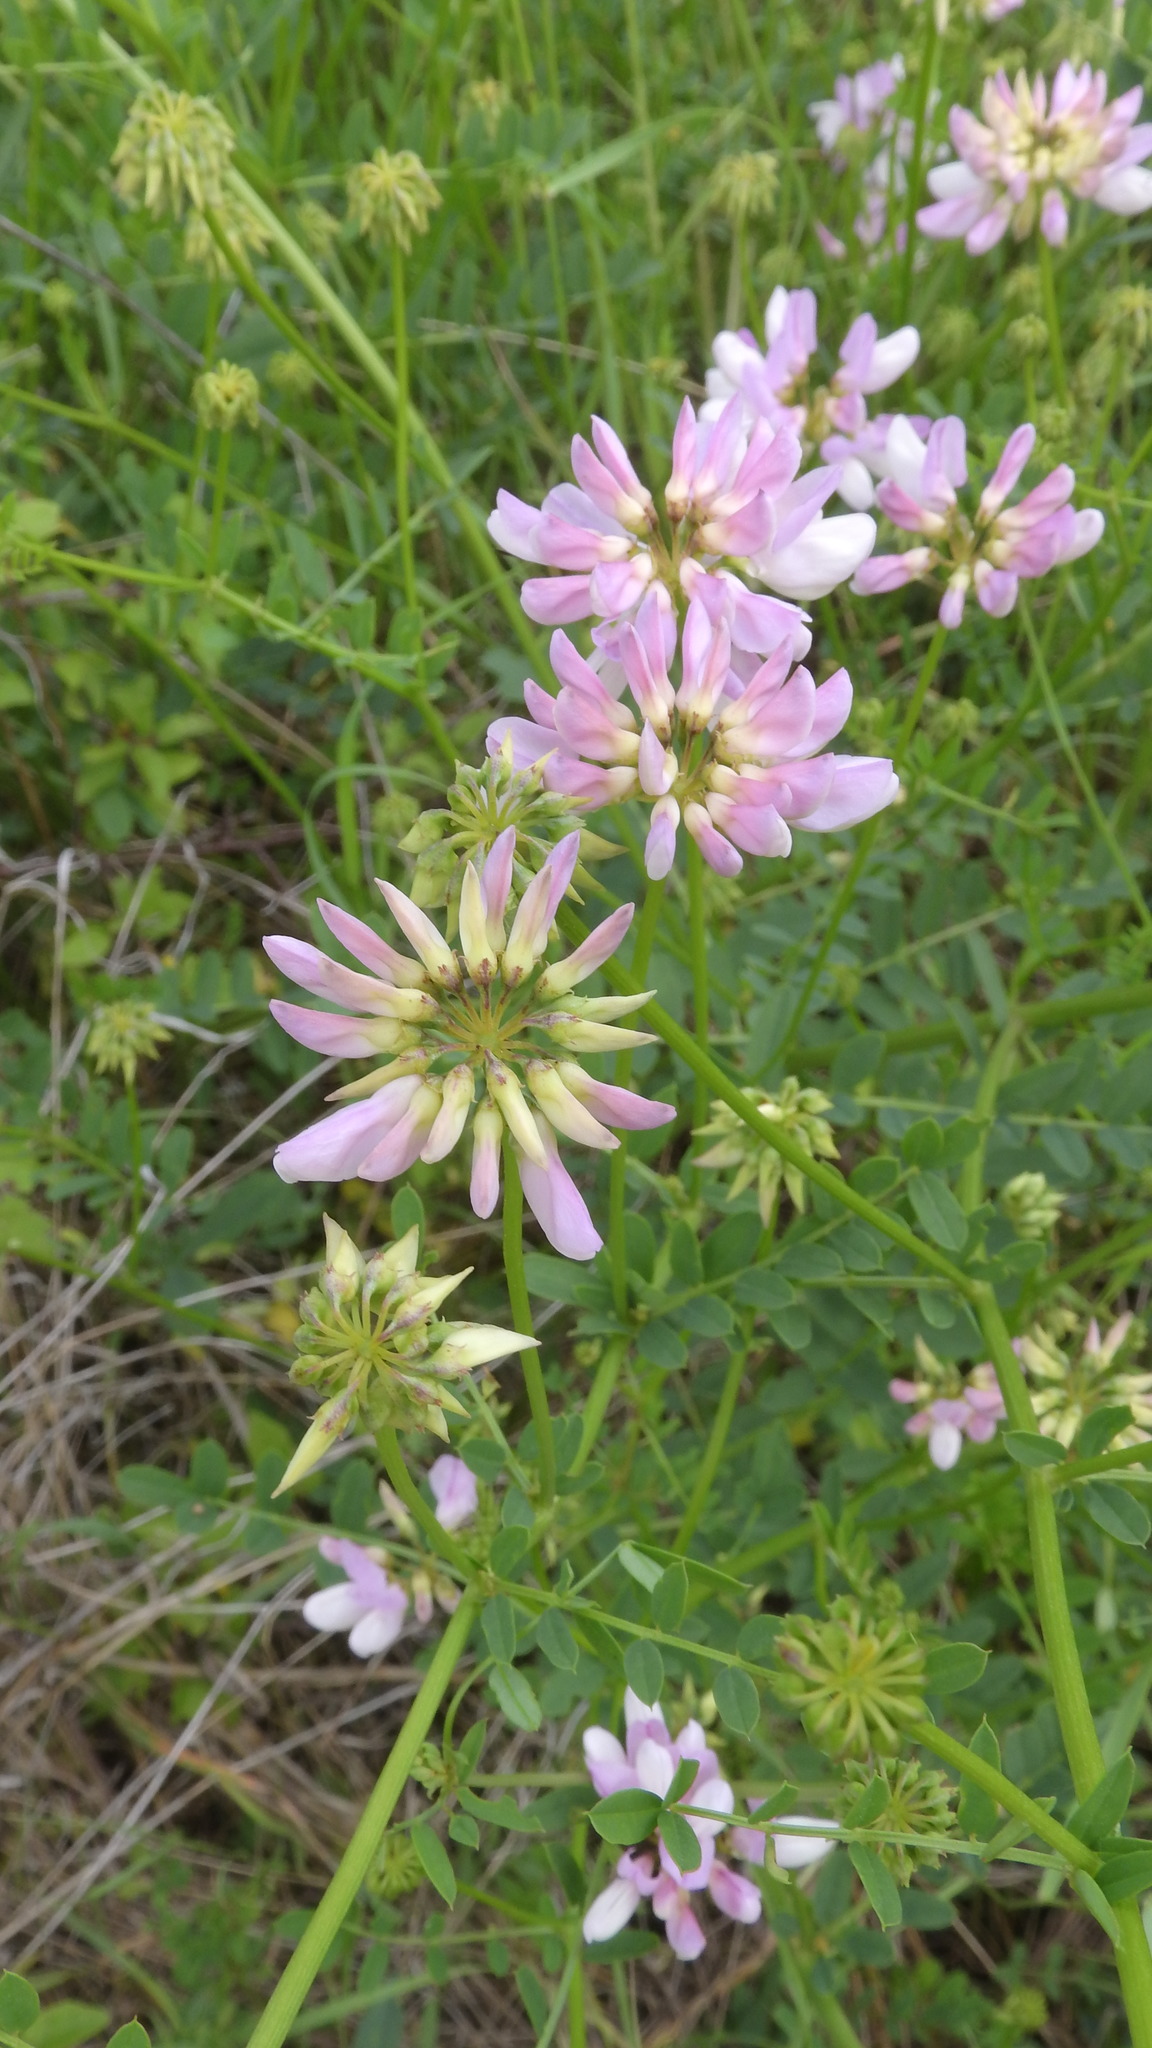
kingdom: Plantae
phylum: Tracheophyta
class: Magnoliopsida
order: Fabales
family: Fabaceae
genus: Coronilla
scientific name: Coronilla varia
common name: Crownvetch
